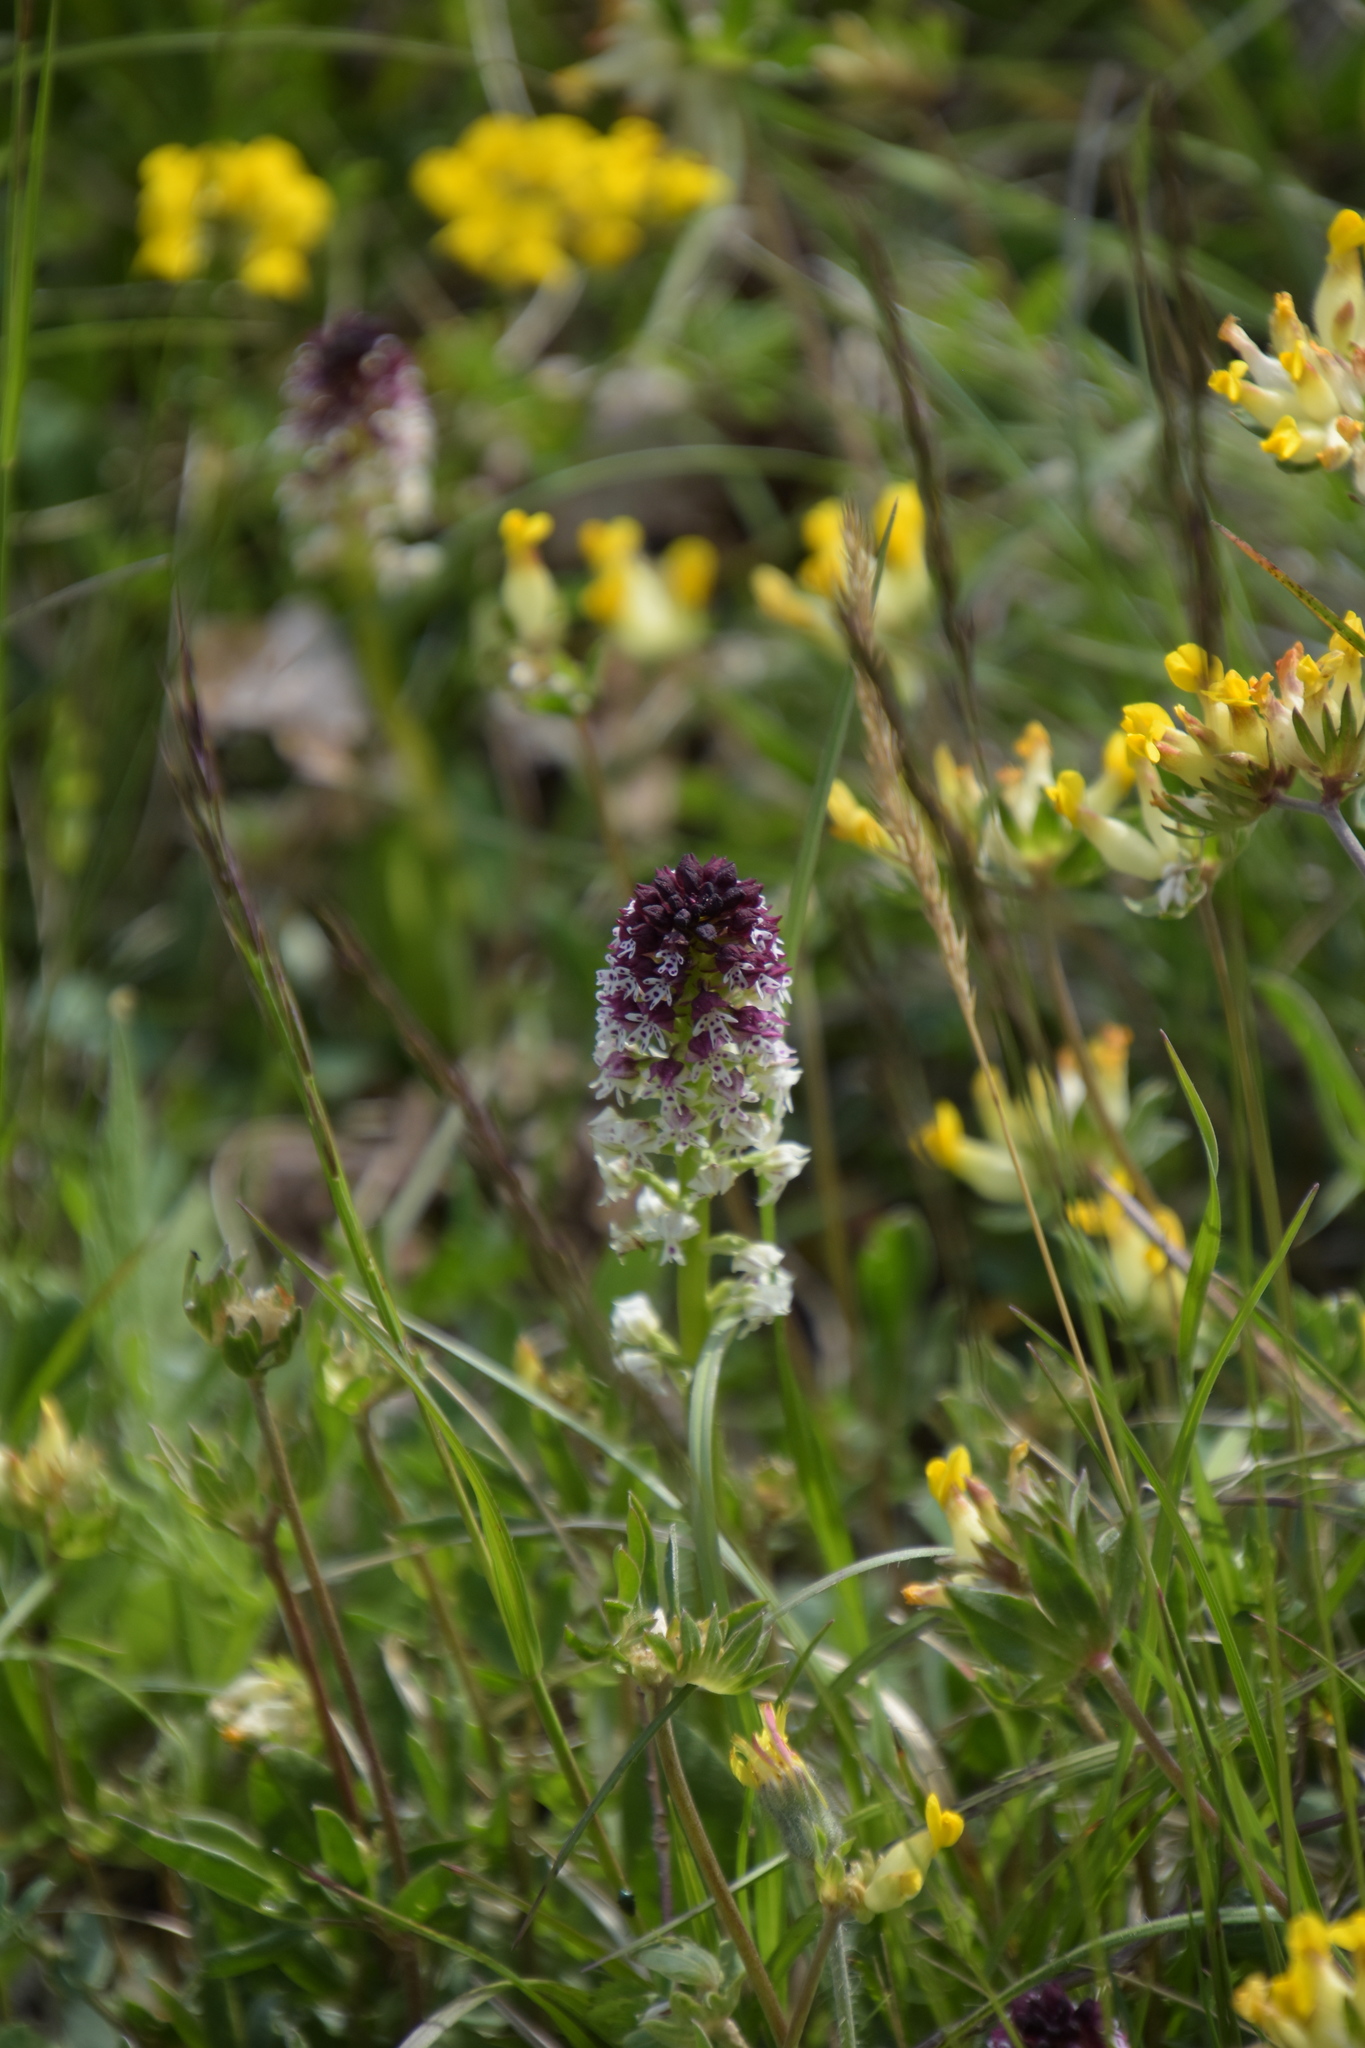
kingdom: Plantae
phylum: Tracheophyta
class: Liliopsida
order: Asparagales
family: Orchidaceae
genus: Neotinea
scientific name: Neotinea ustulata
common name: Burnt orchid
